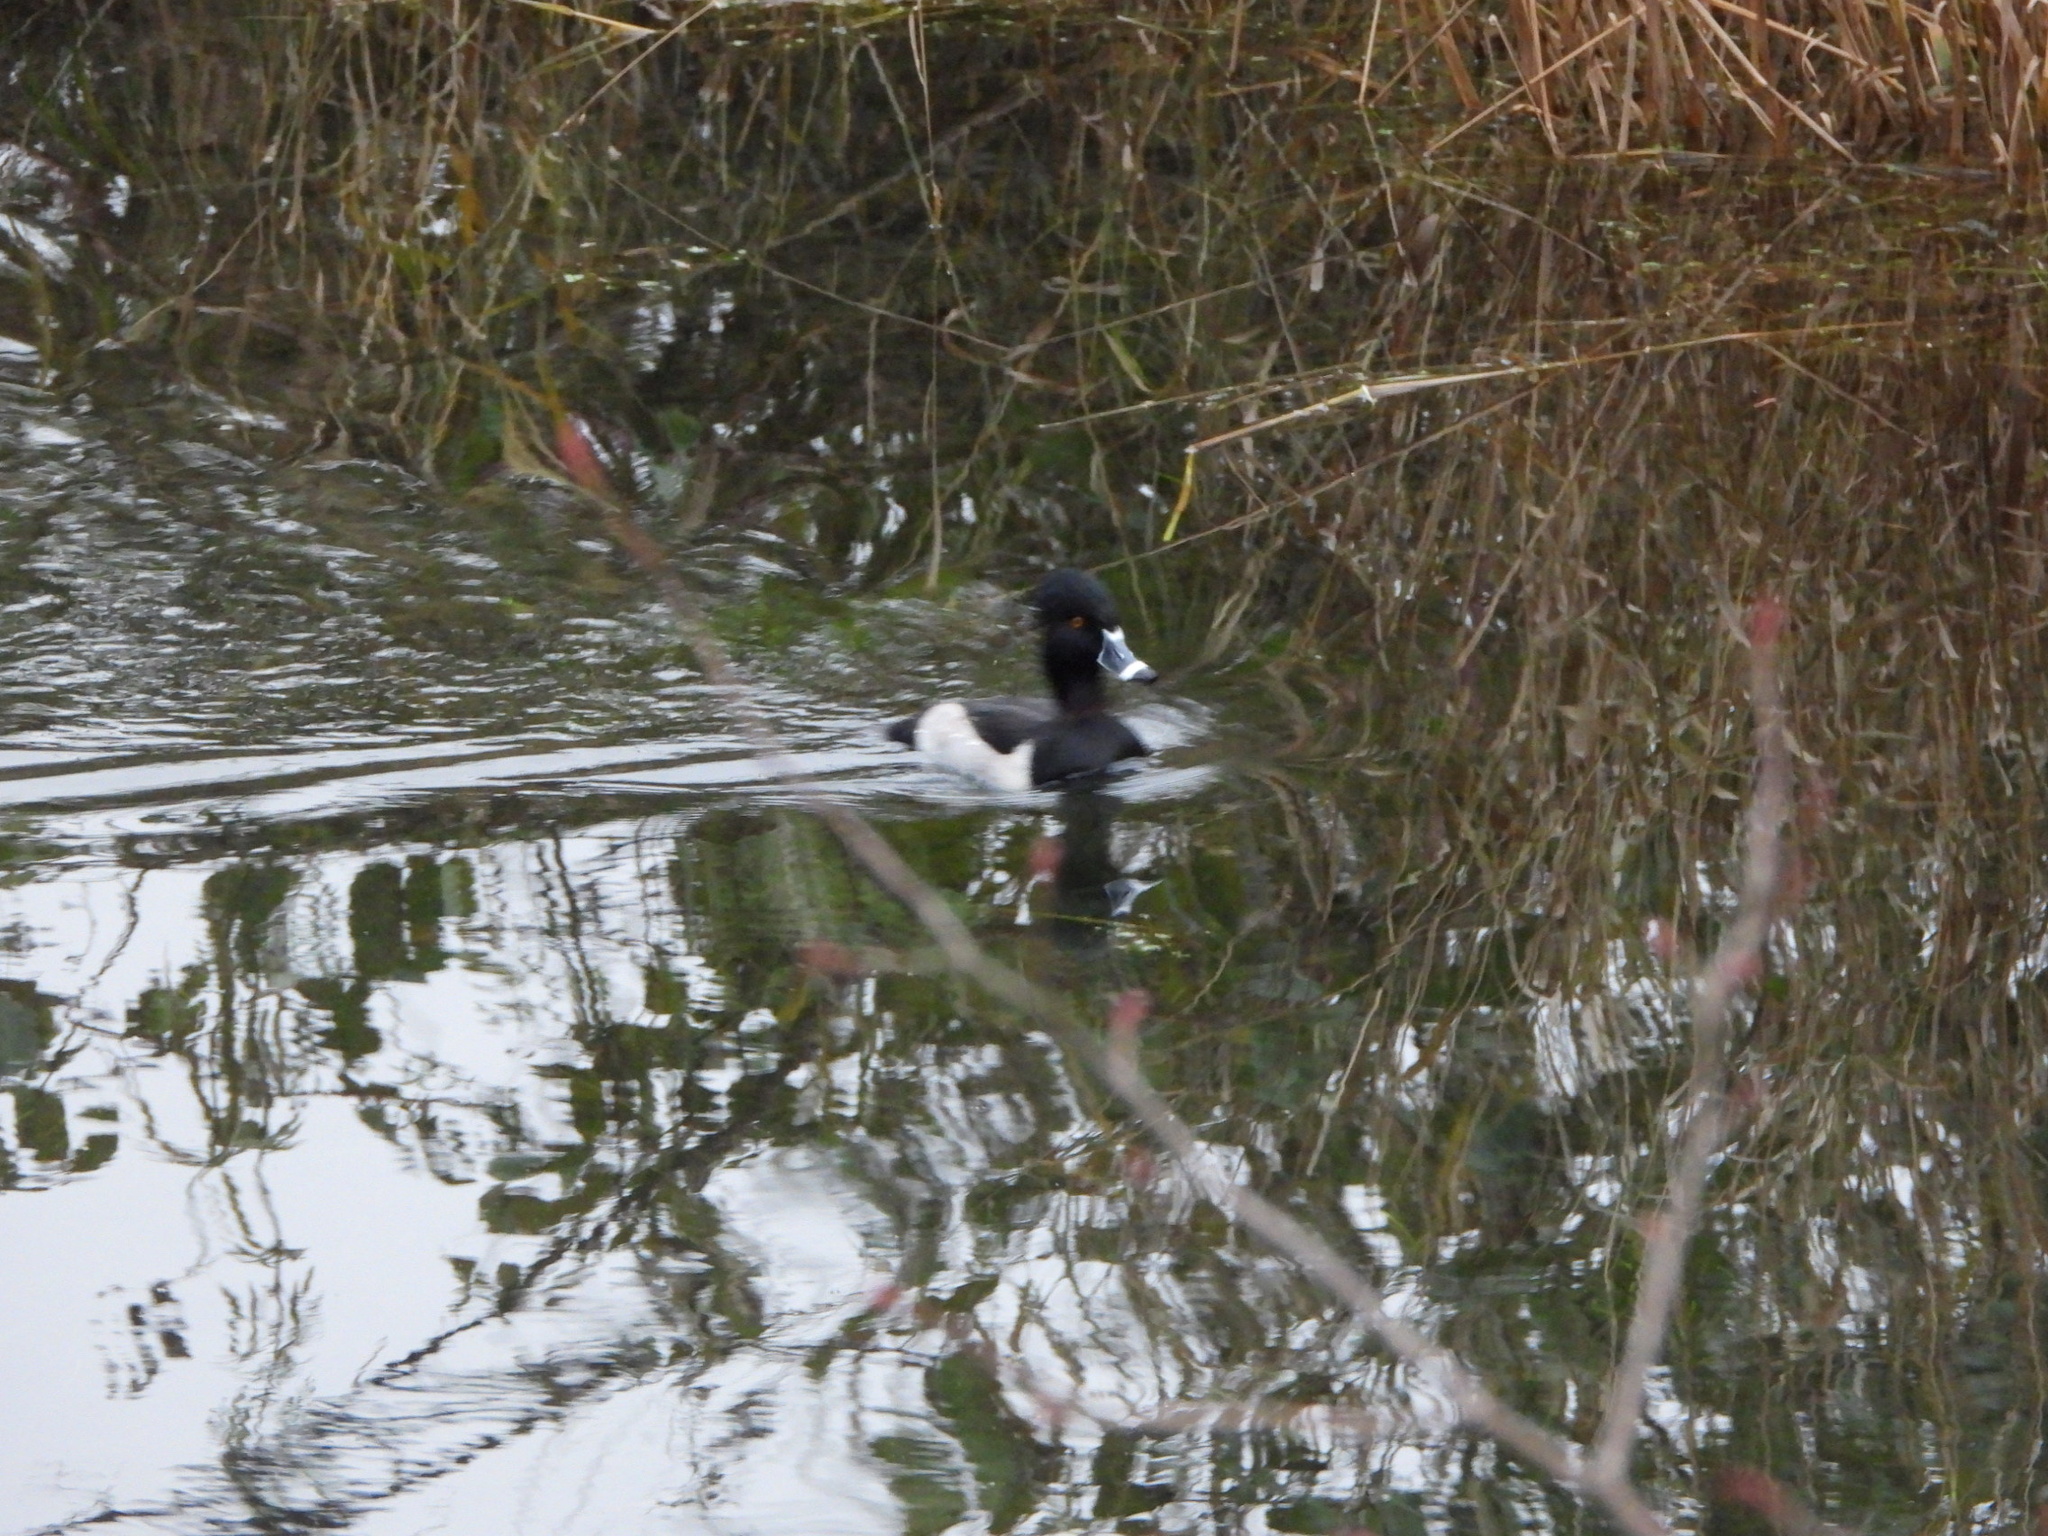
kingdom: Animalia
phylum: Chordata
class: Aves
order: Anseriformes
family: Anatidae
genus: Aythya
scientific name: Aythya collaris
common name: Ring-necked duck
